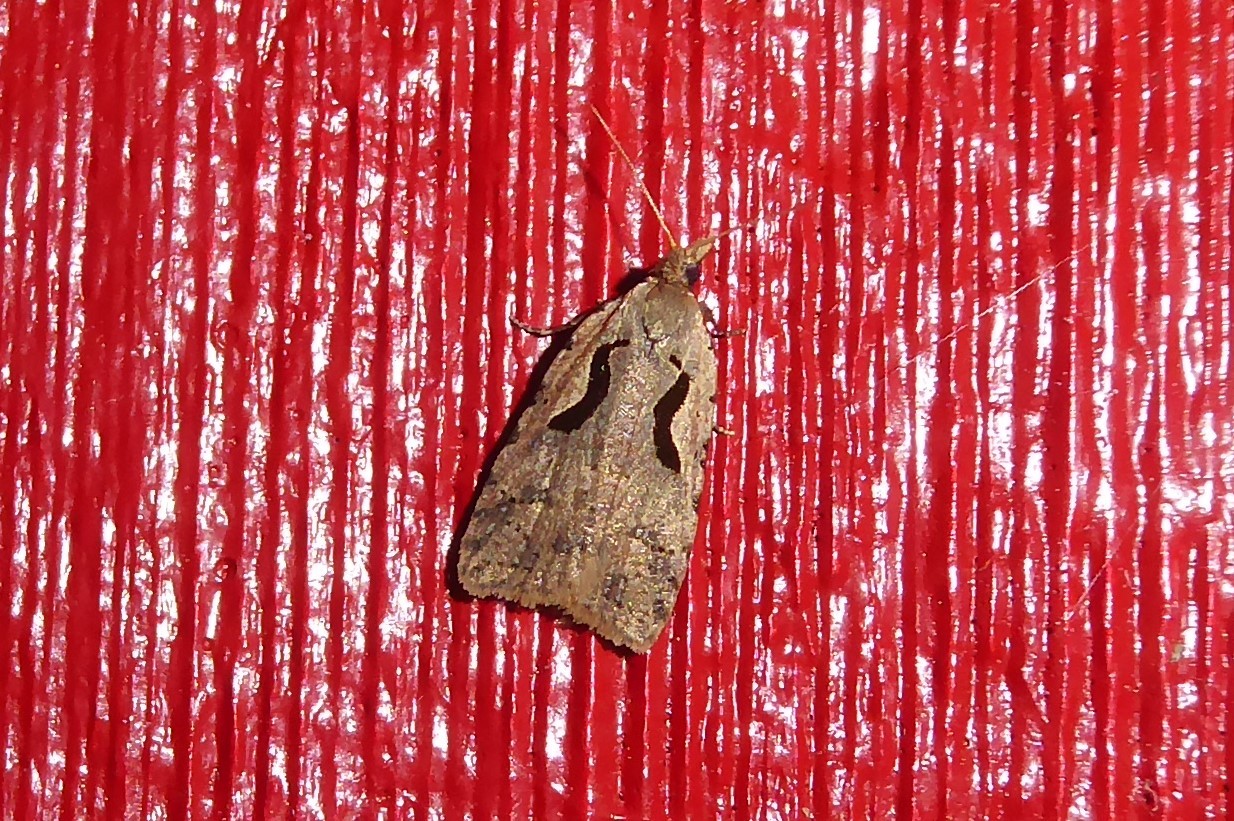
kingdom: Animalia
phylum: Arthropoda
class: Insecta
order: Lepidoptera
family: Tortricidae
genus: Cnephasia
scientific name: Cnephasia jactatana
